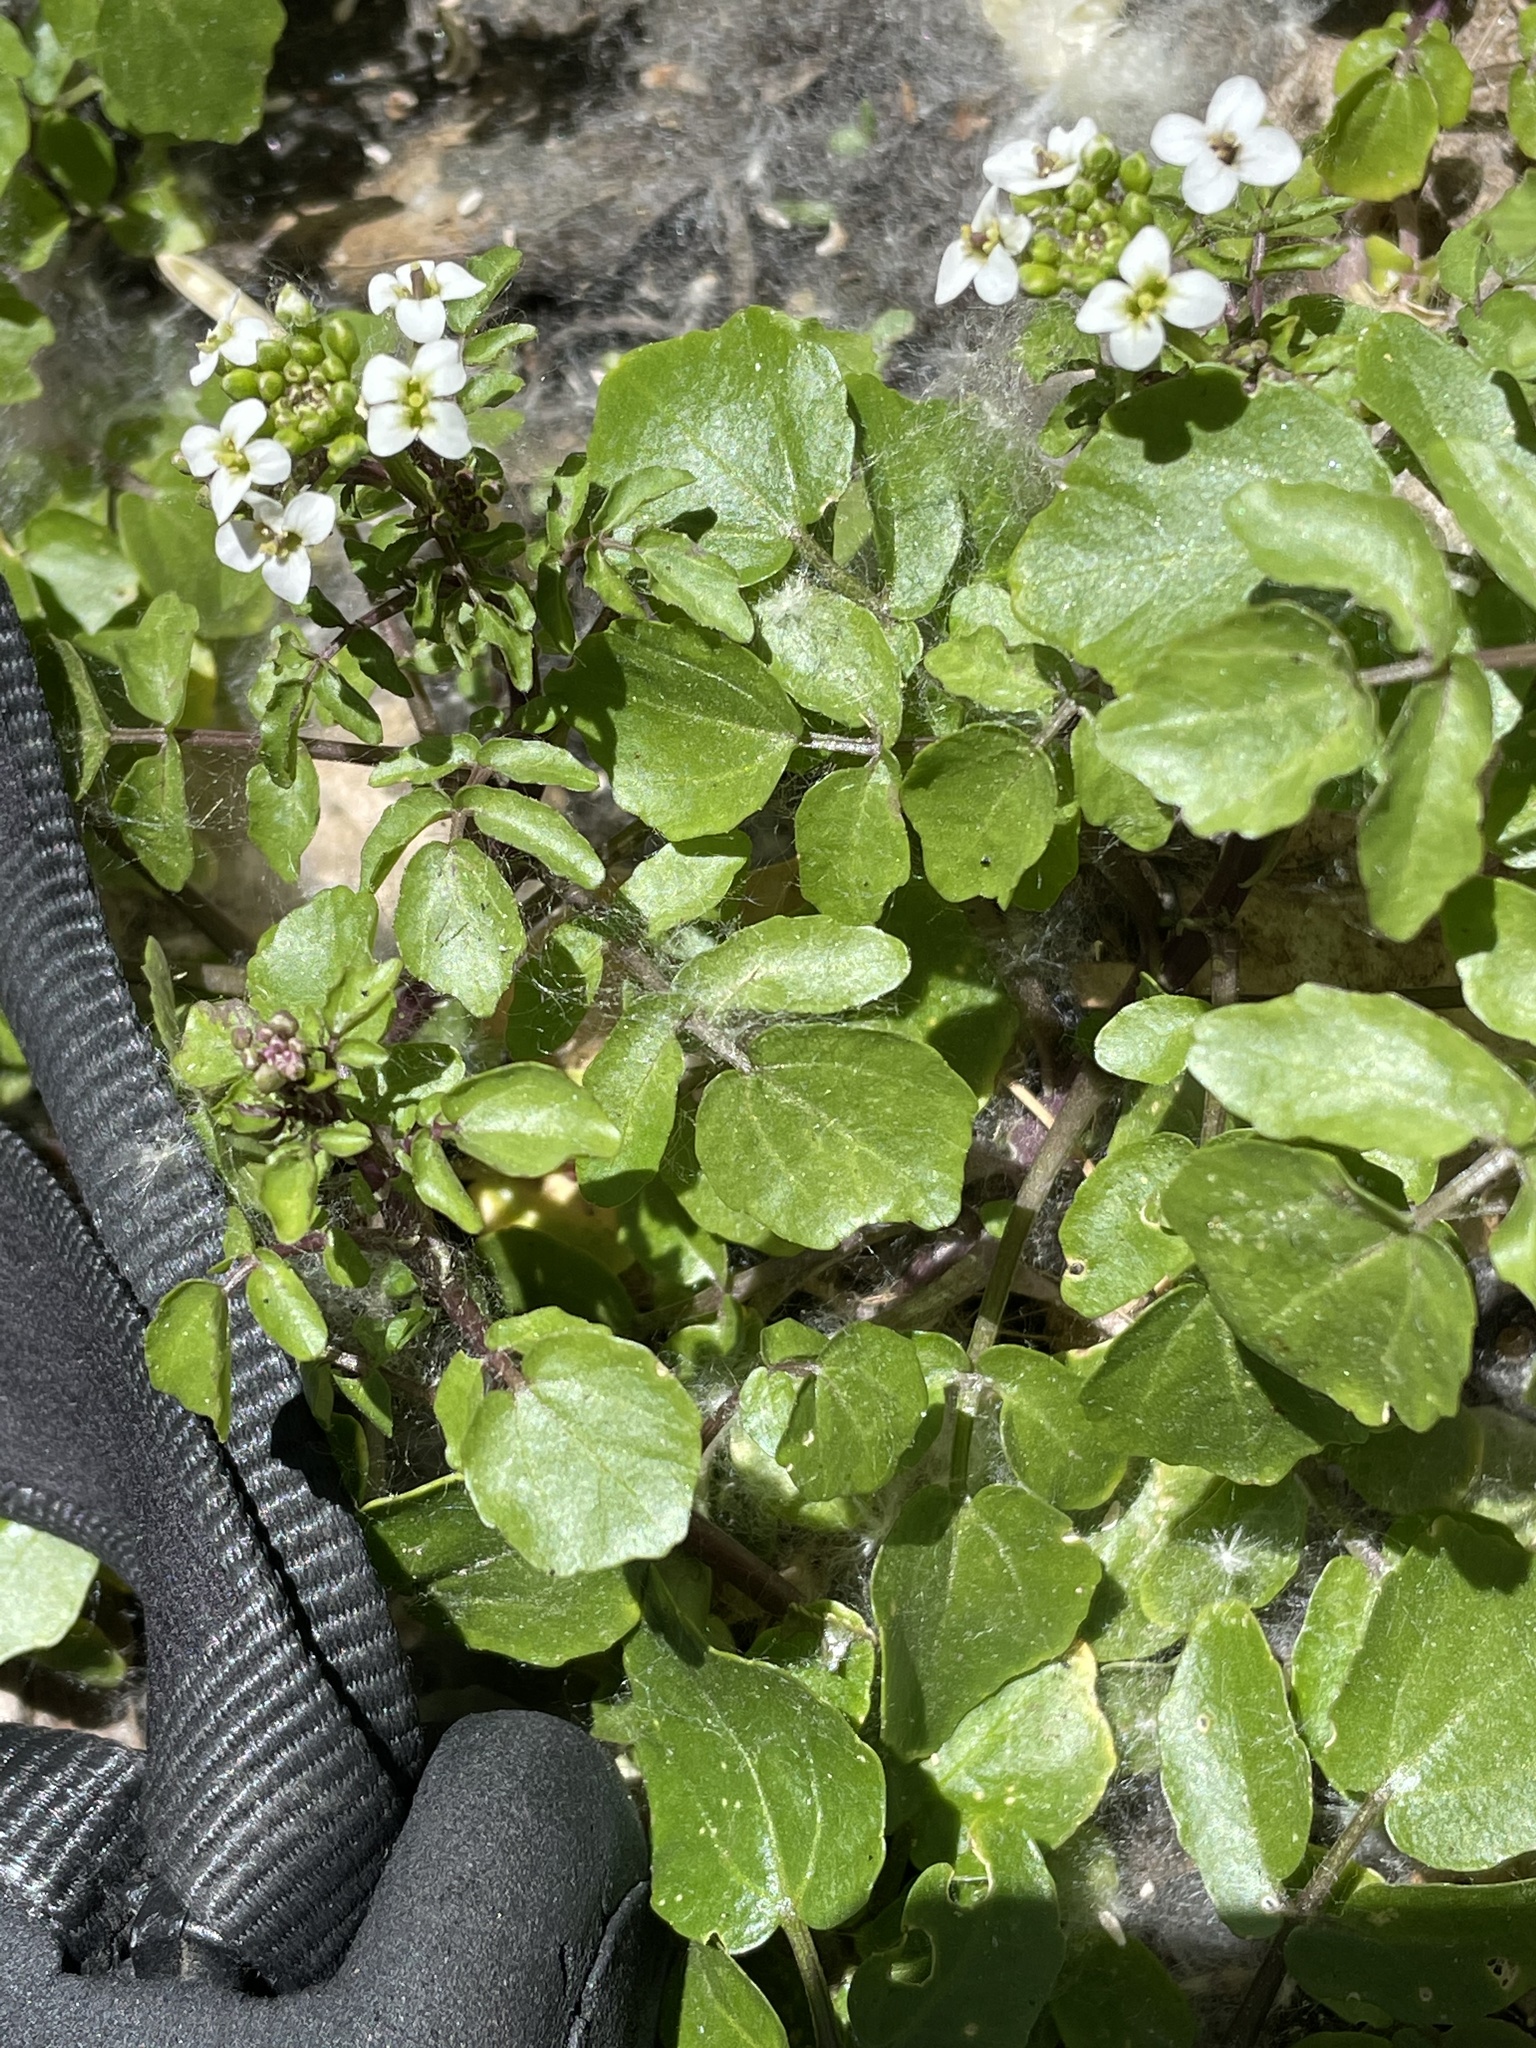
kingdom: Plantae
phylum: Tracheophyta
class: Magnoliopsida
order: Brassicales
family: Brassicaceae
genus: Nasturtium
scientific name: Nasturtium officinale
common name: Watercress
